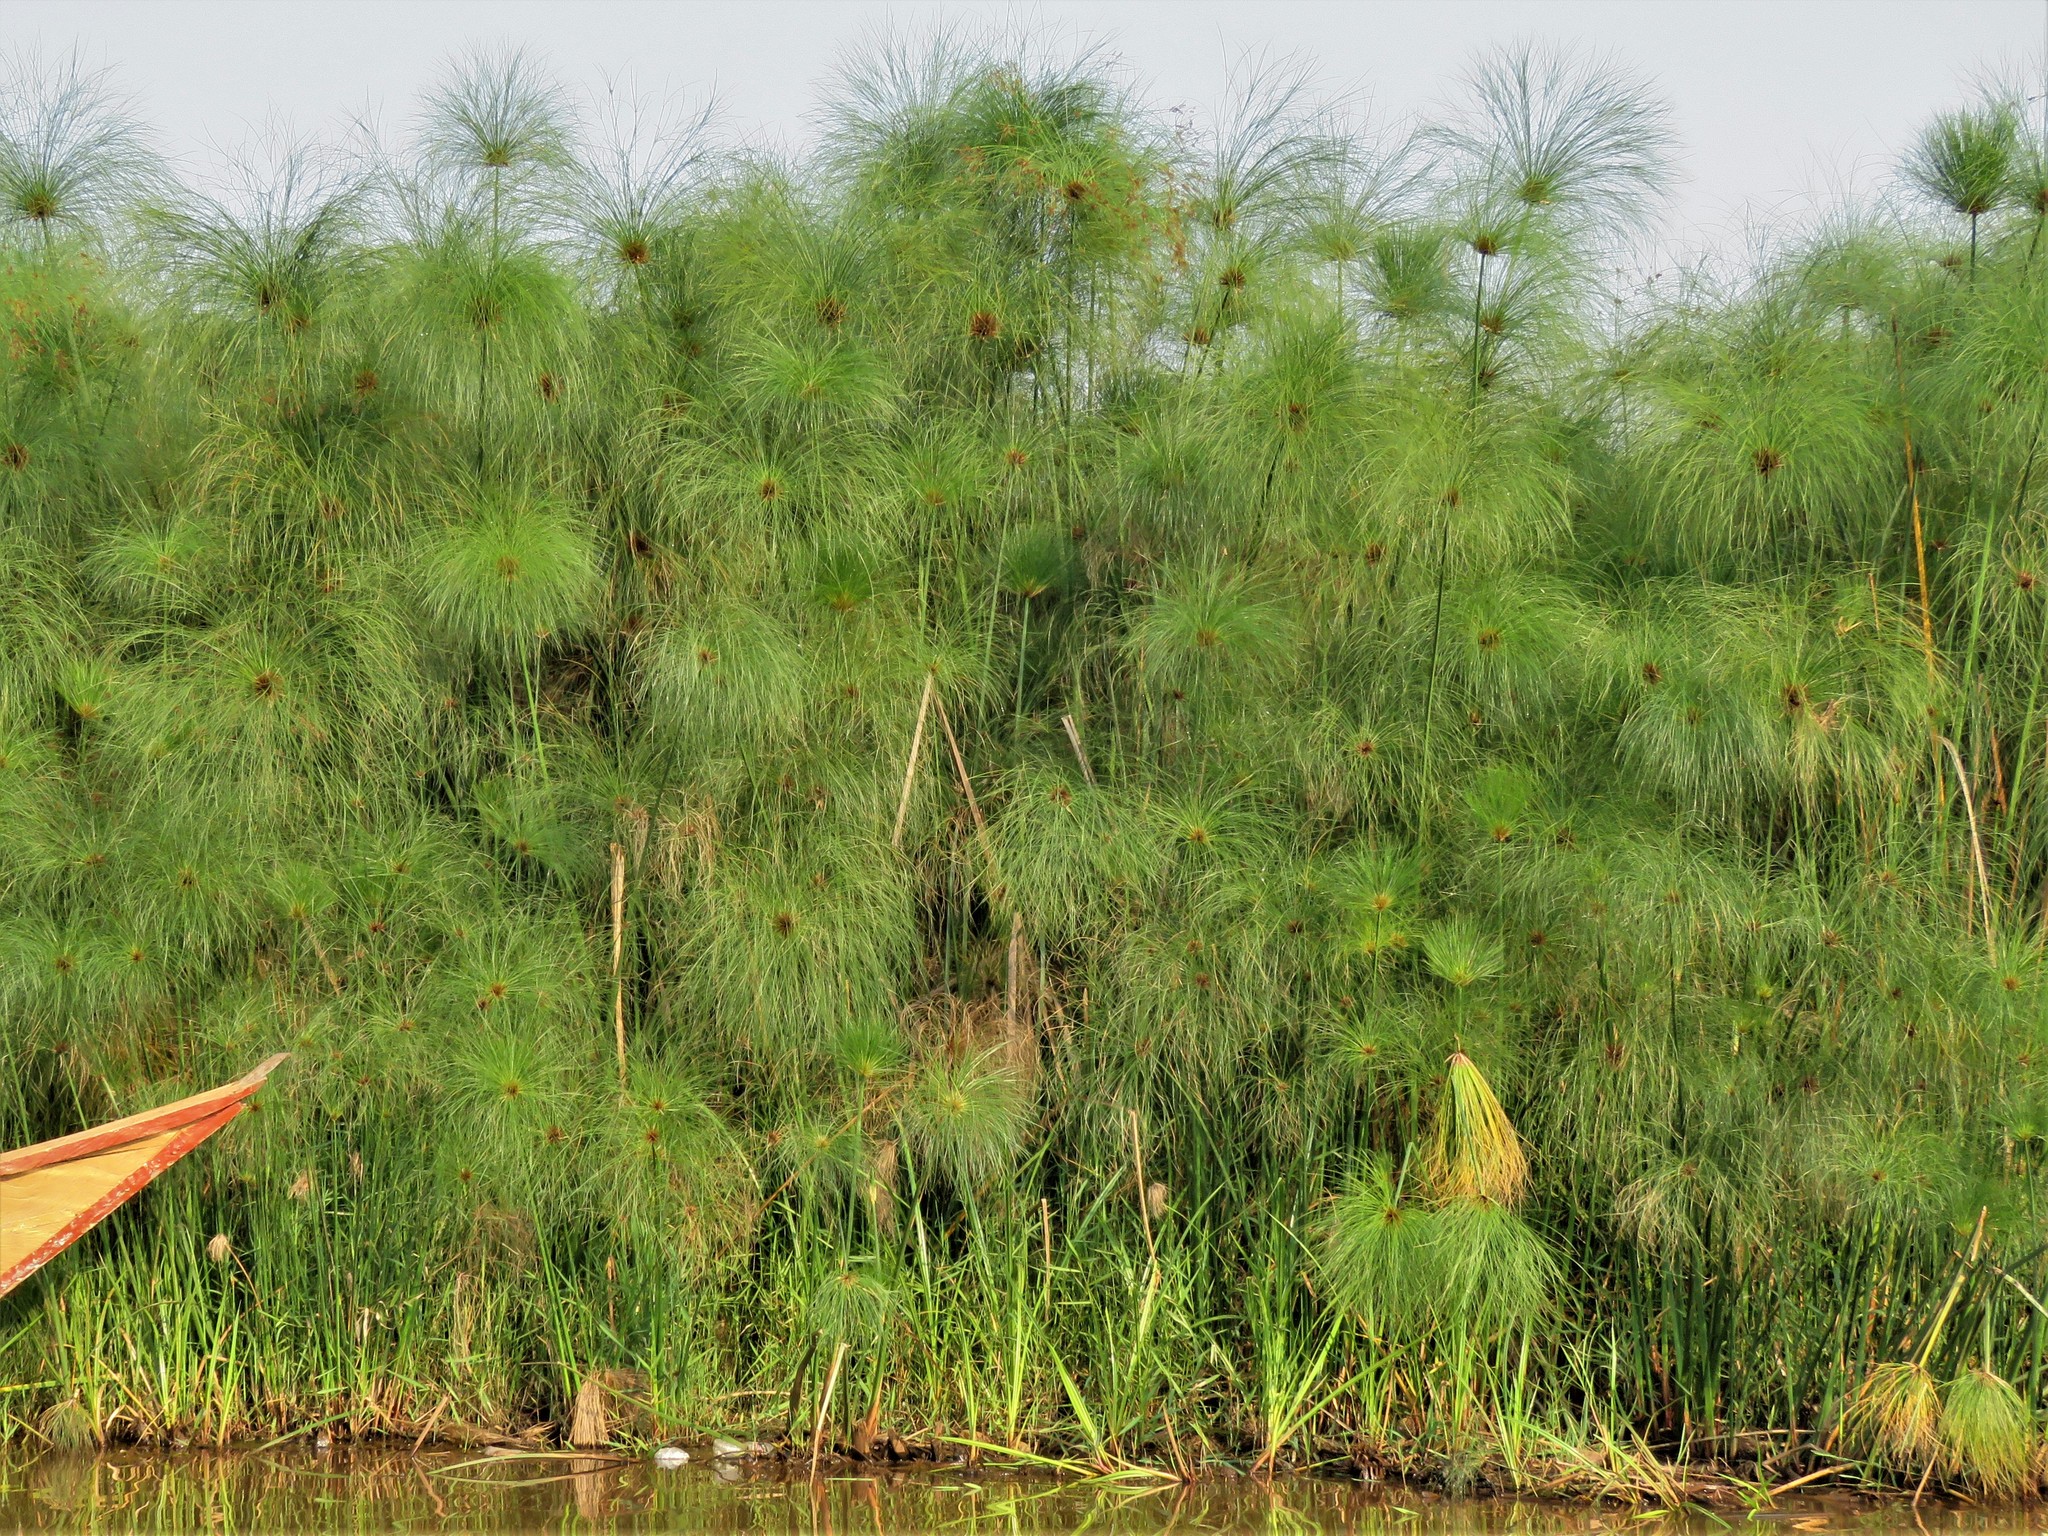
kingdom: Plantae
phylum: Tracheophyta
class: Liliopsida
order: Poales
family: Cyperaceae
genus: Cyperus
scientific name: Cyperus papyrus
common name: Papyrus
